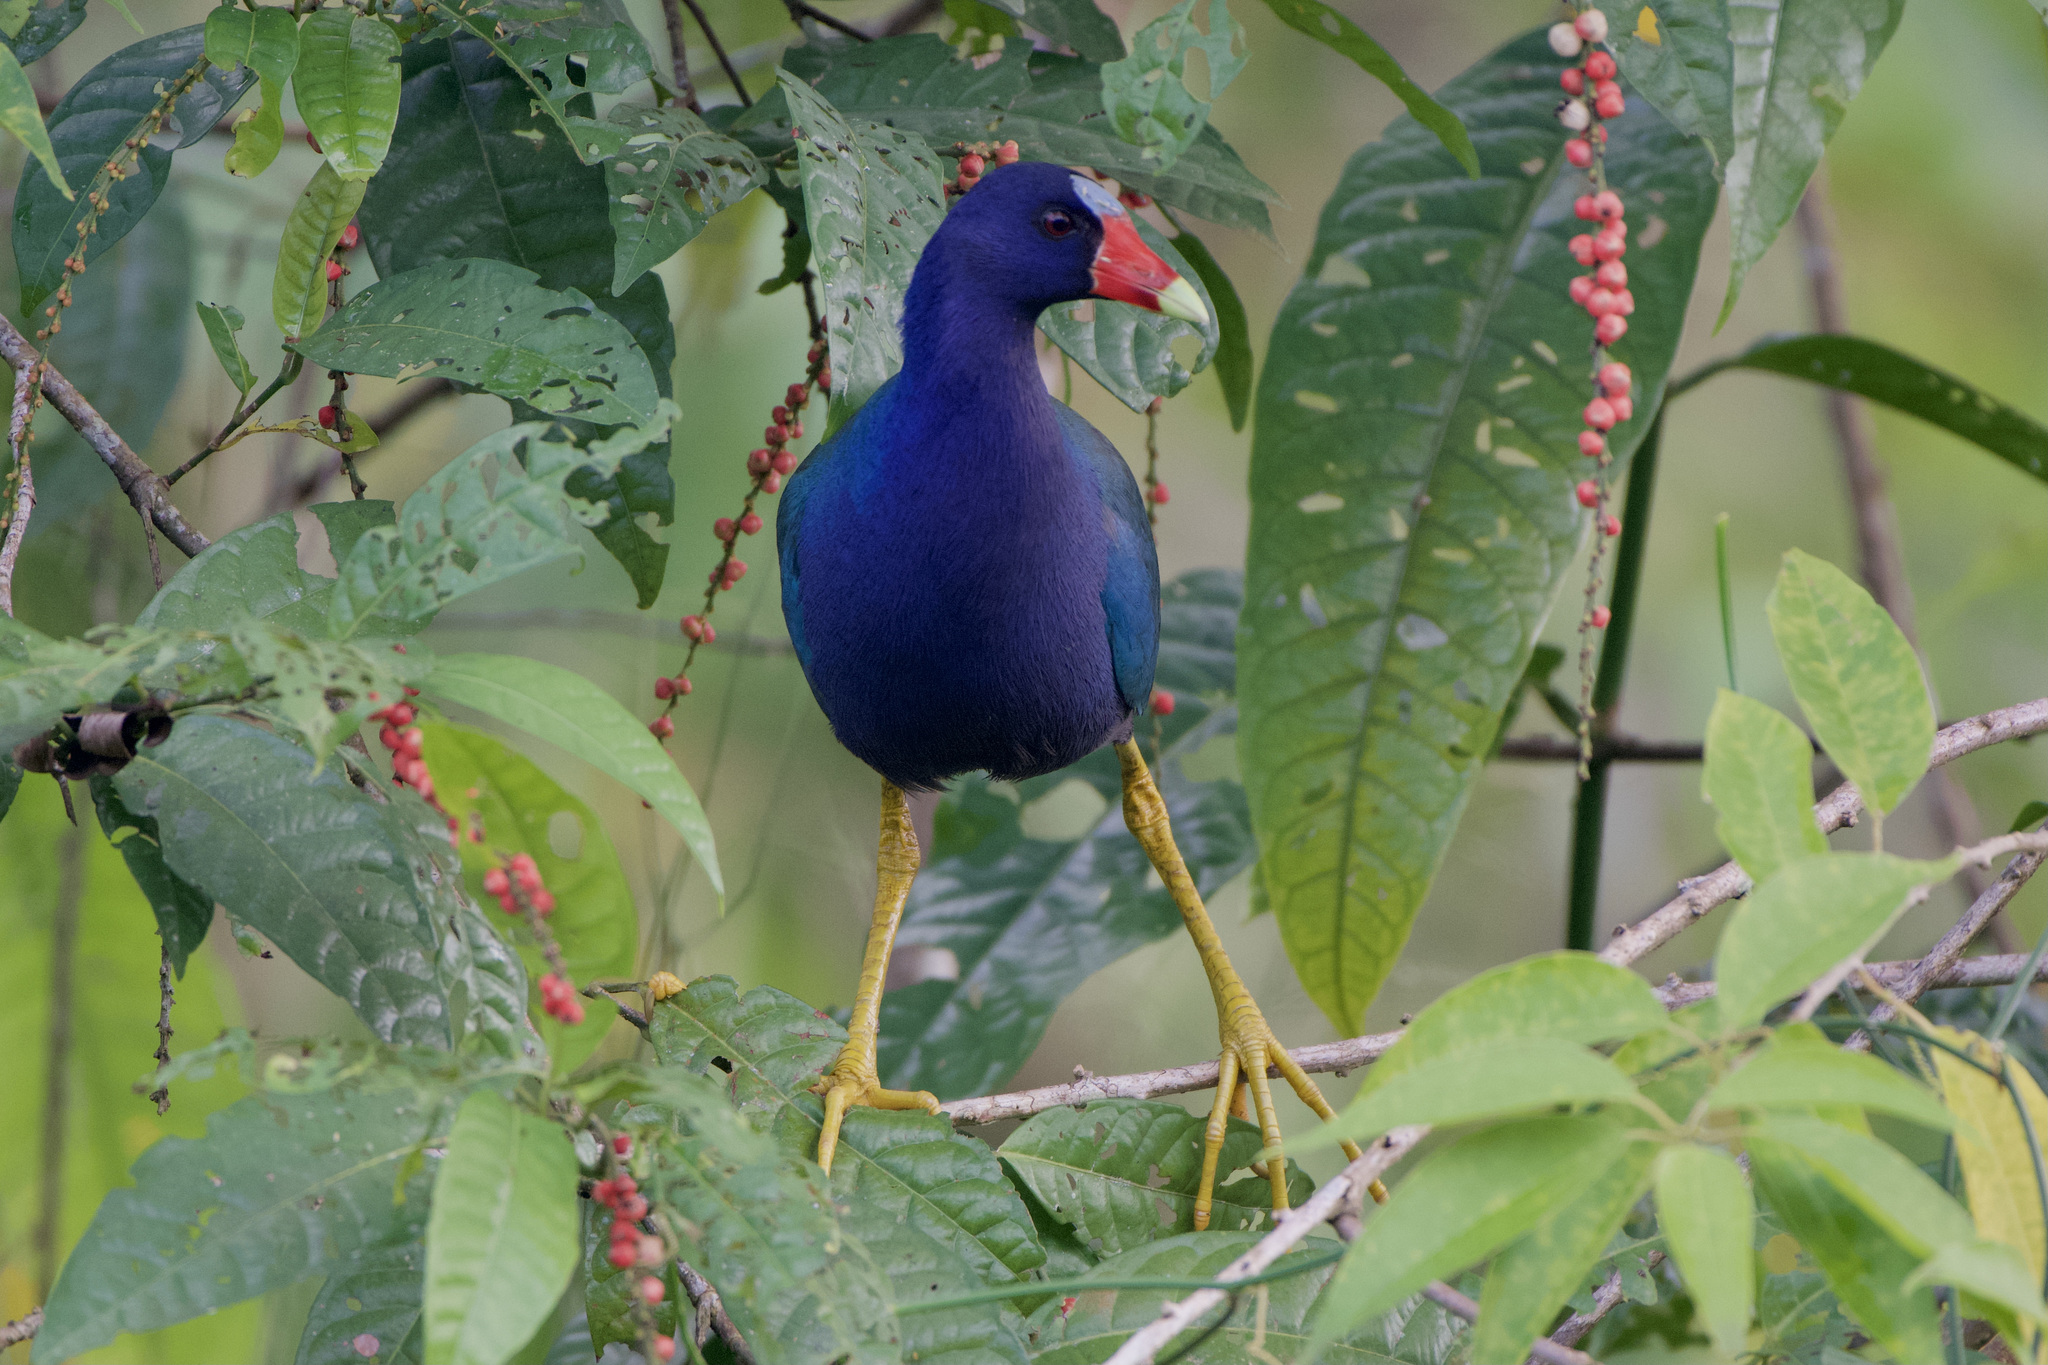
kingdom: Animalia
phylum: Chordata
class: Aves
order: Gruiformes
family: Rallidae
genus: Porphyrio
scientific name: Porphyrio martinica
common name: Purple gallinule
